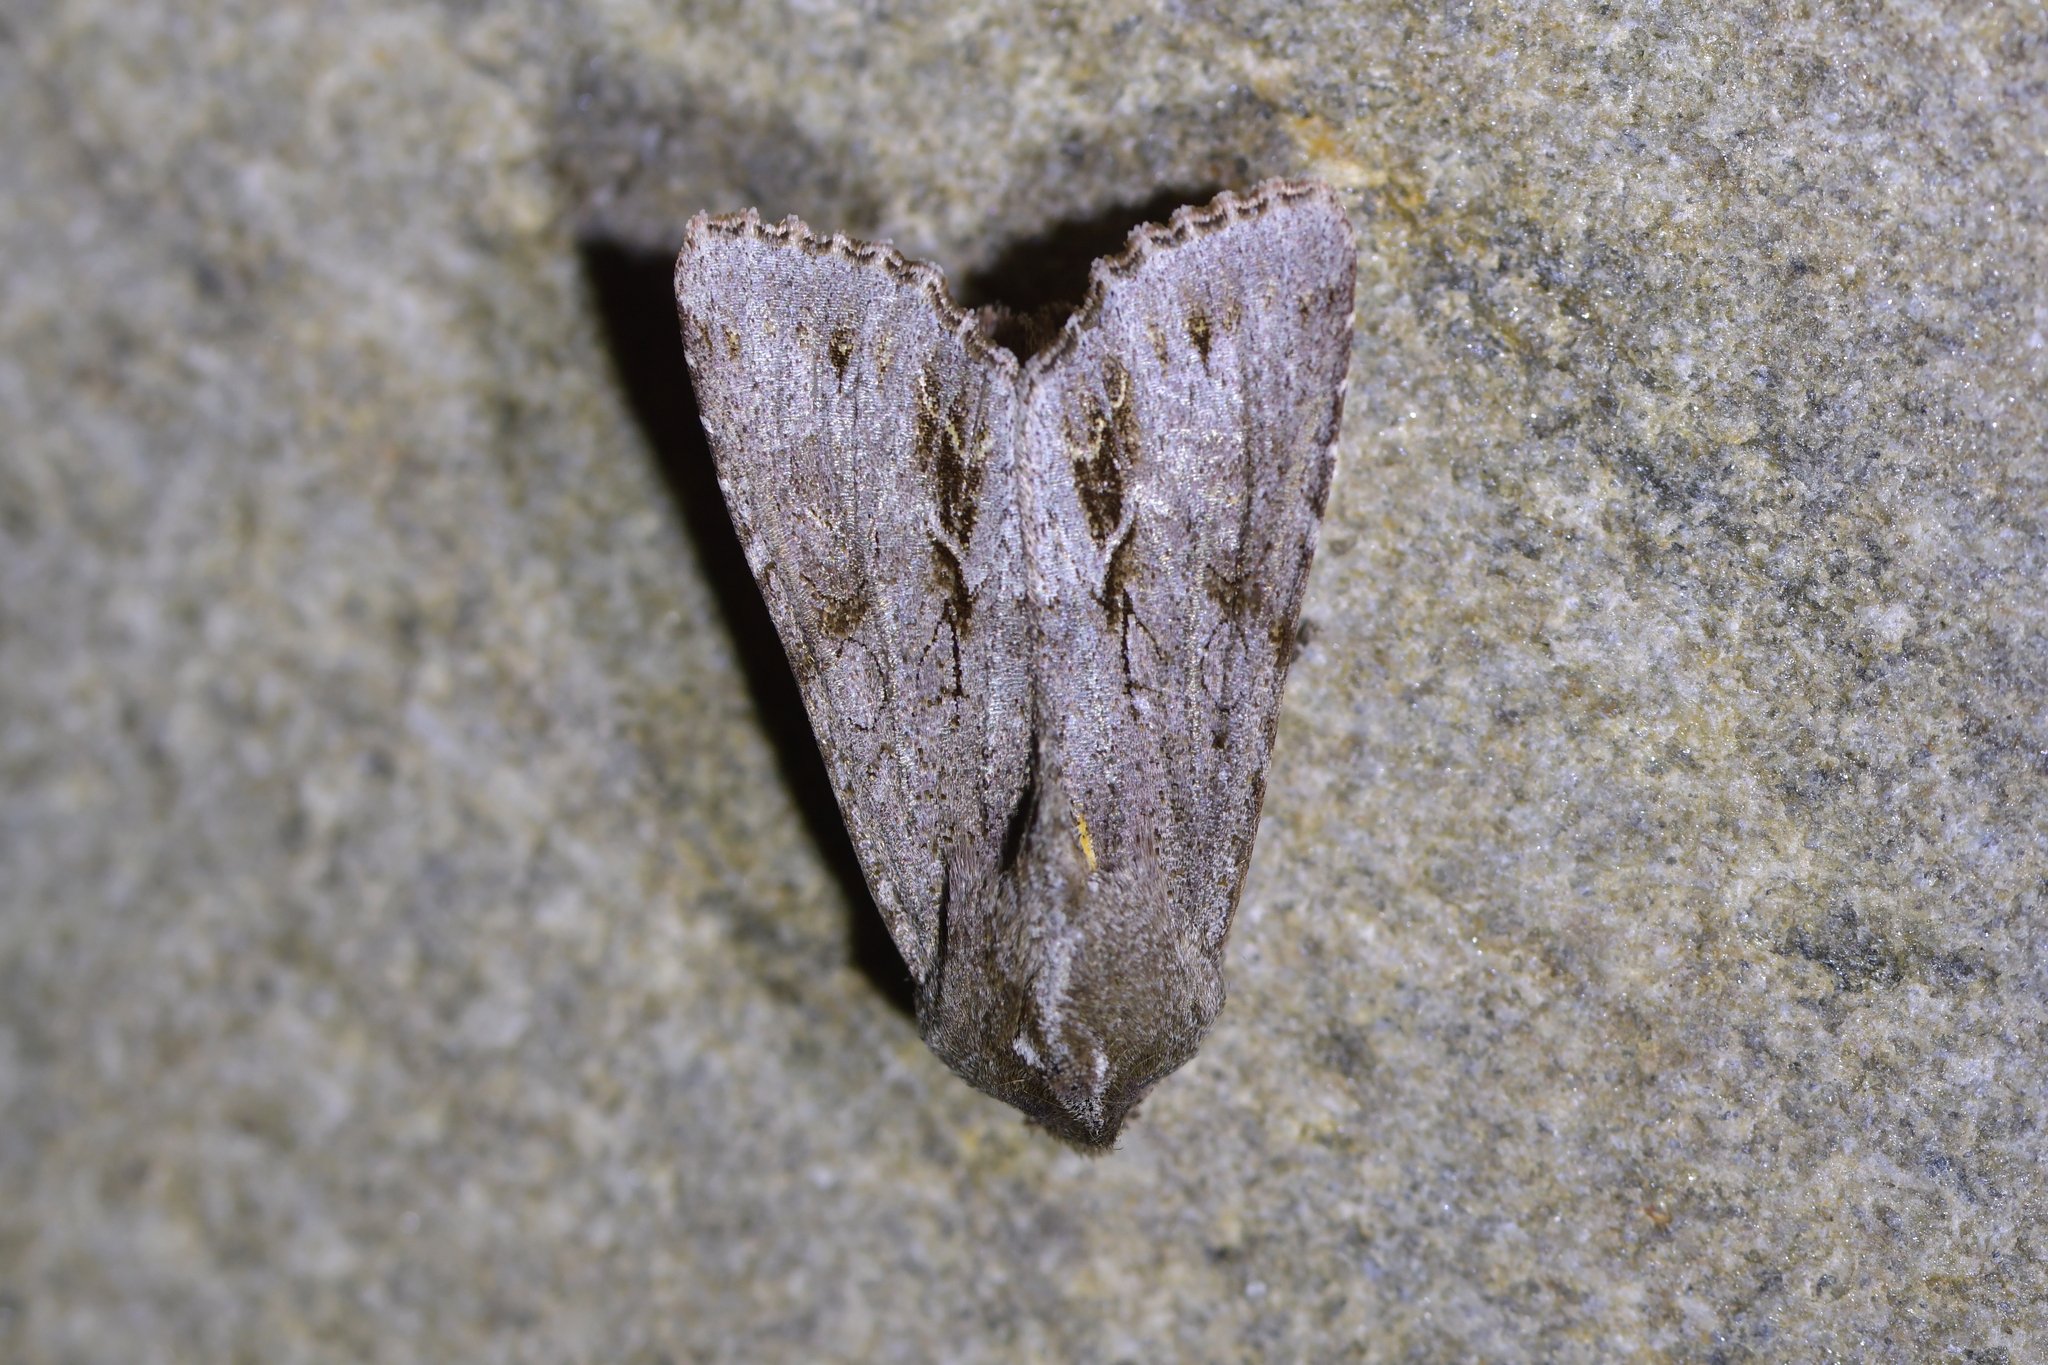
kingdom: Animalia
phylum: Arthropoda
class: Insecta
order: Lepidoptera
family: Noctuidae
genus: Ichneutica
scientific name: Ichneutica
